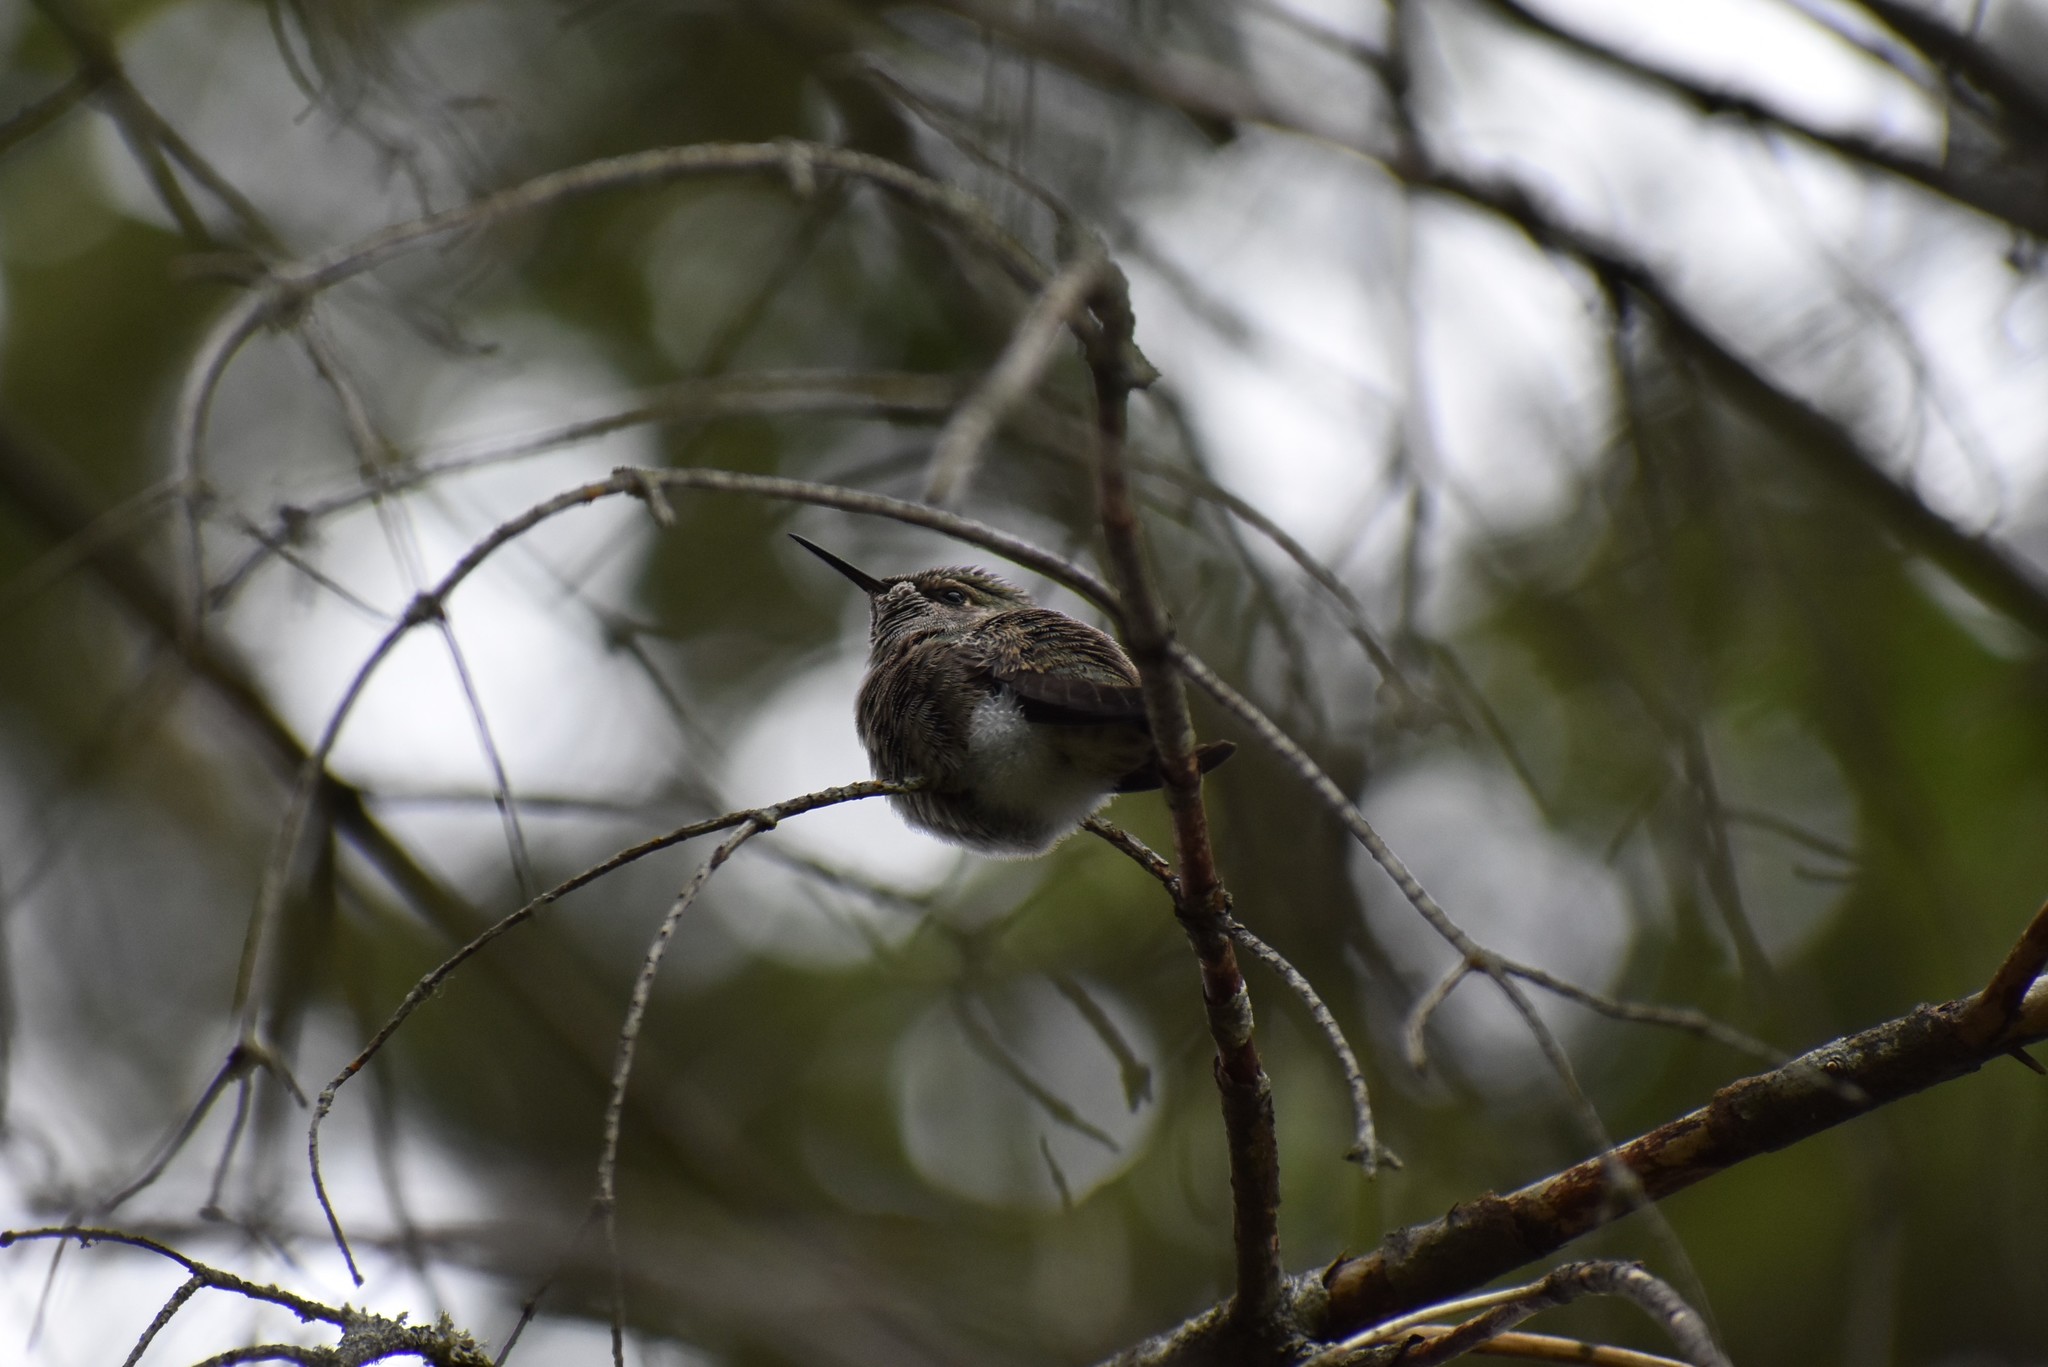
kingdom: Animalia
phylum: Chordata
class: Aves
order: Apodiformes
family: Trochilidae
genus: Calypte
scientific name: Calypte anna
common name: Anna's hummingbird
